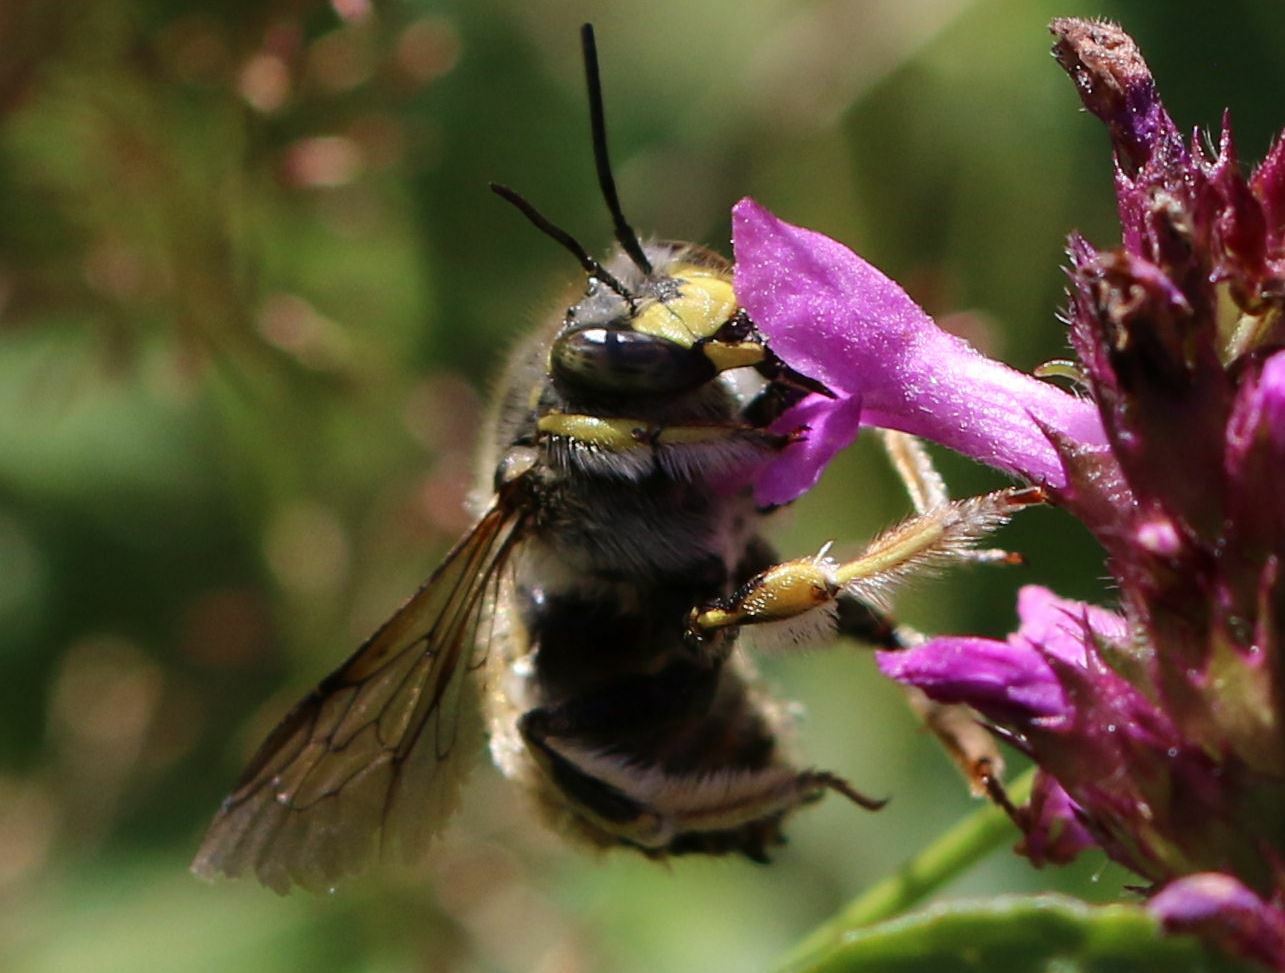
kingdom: Animalia
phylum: Arthropoda
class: Insecta
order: Hymenoptera
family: Megachilidae
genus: Anthidium
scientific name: Anthidium manicatum
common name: Wool carder bee
